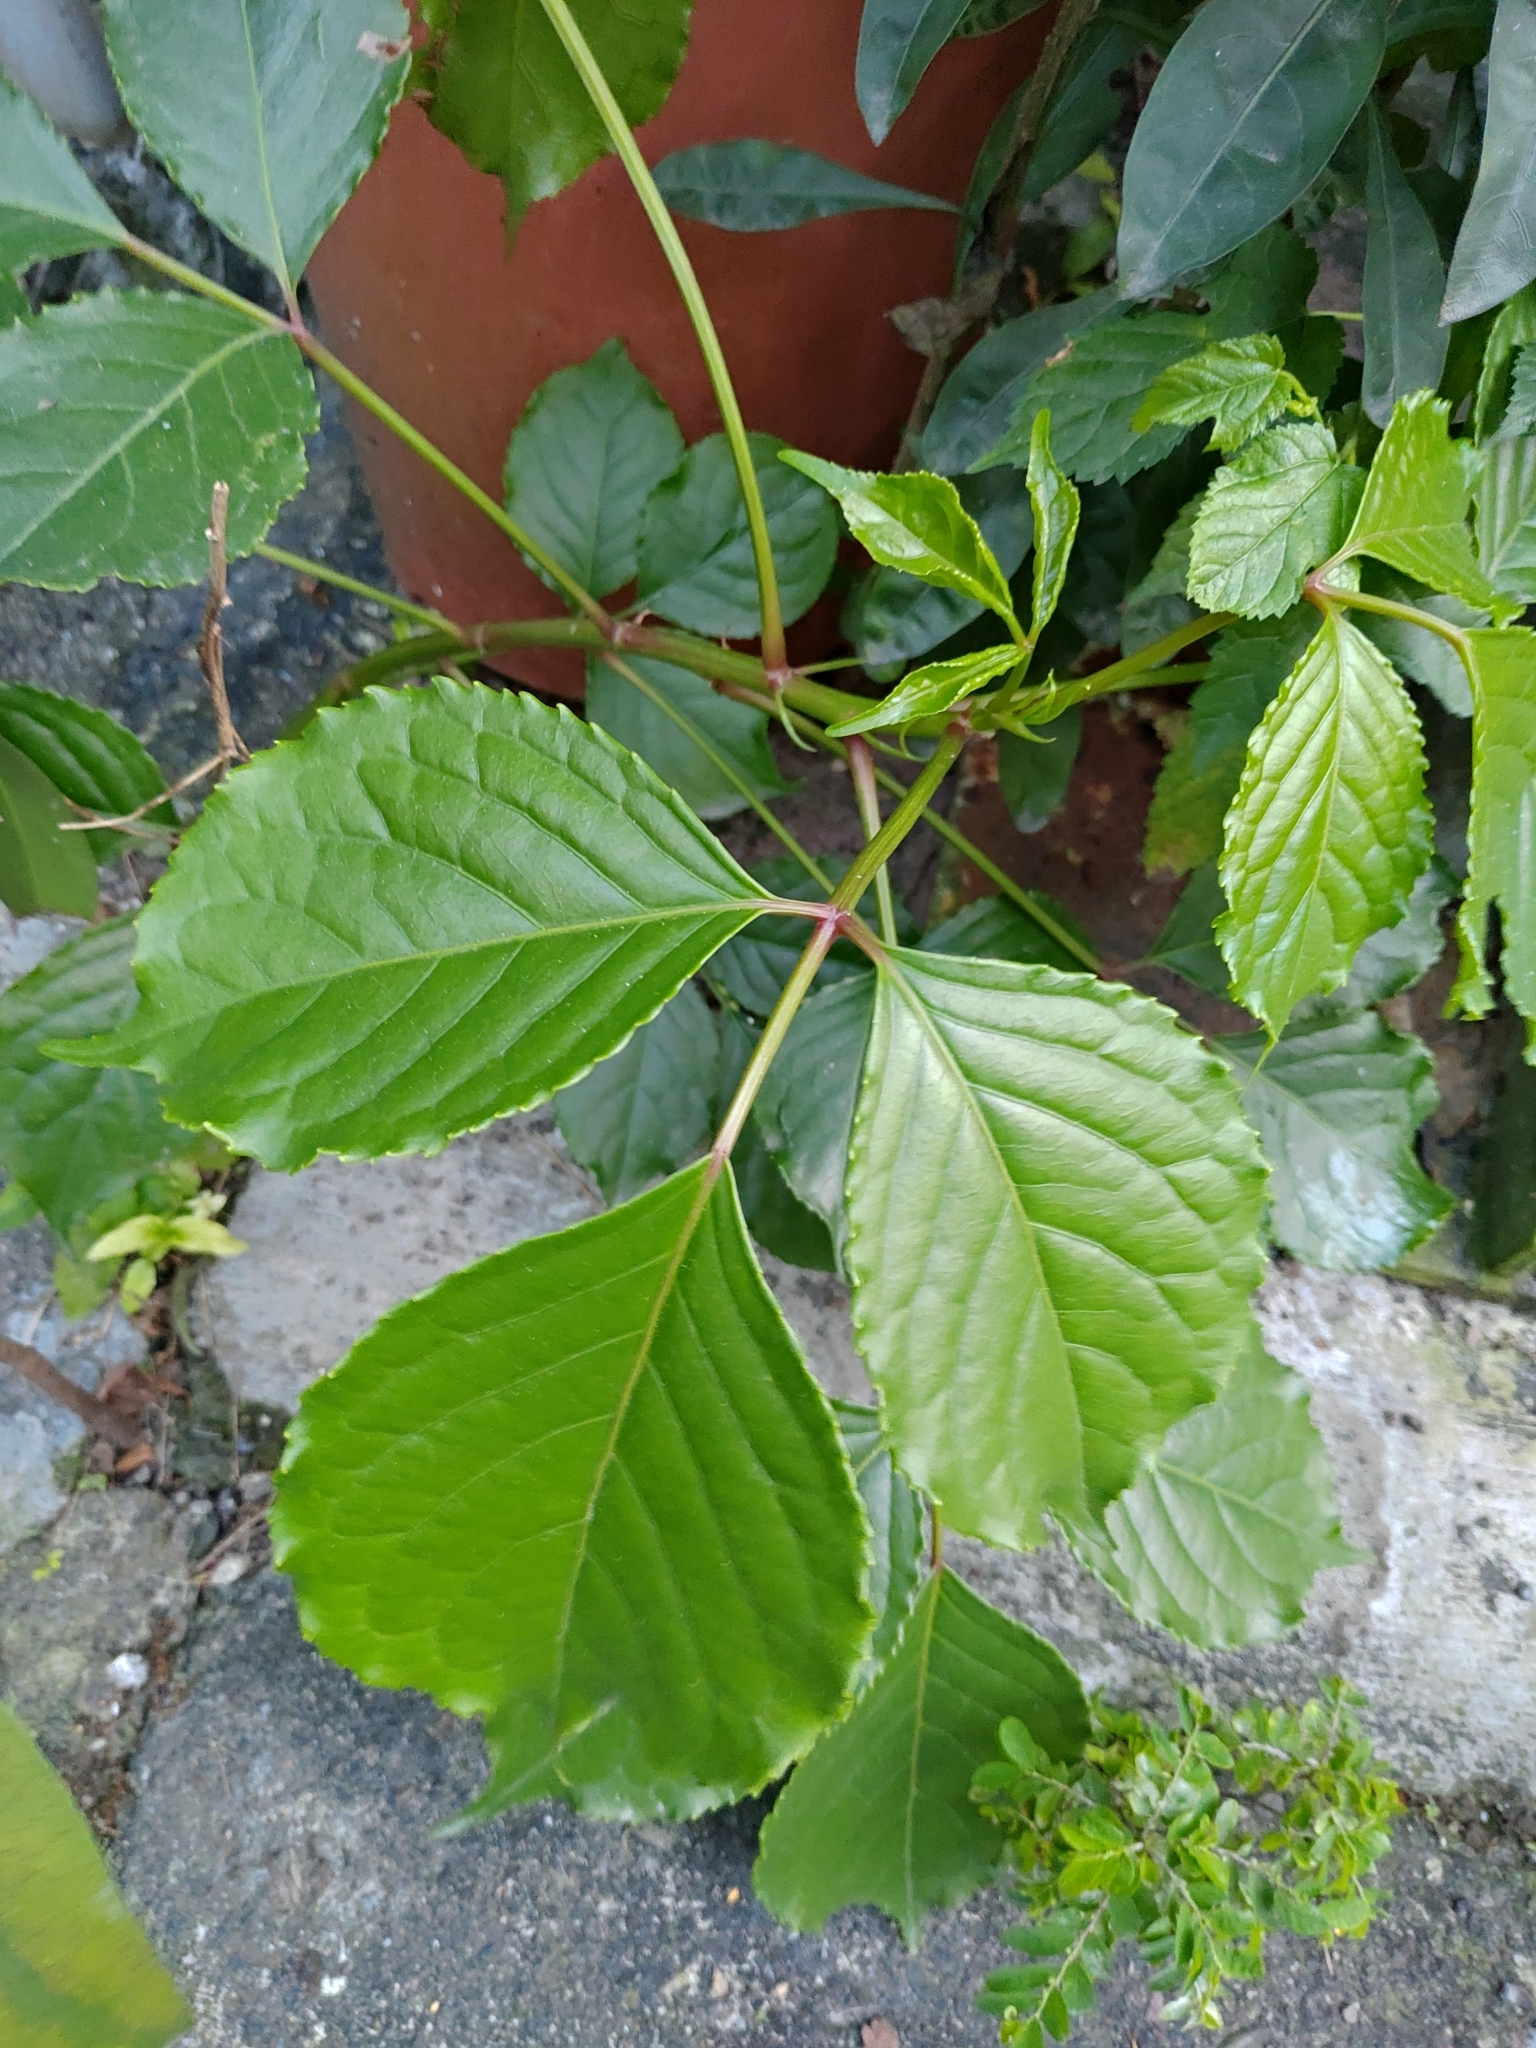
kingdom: Plantae
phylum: Tracheophyta
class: Magnoliopsida
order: Malpighiales
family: Phyllanthaceae
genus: Bischofia
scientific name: Bischofia javanica
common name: Javanese bishopwood
